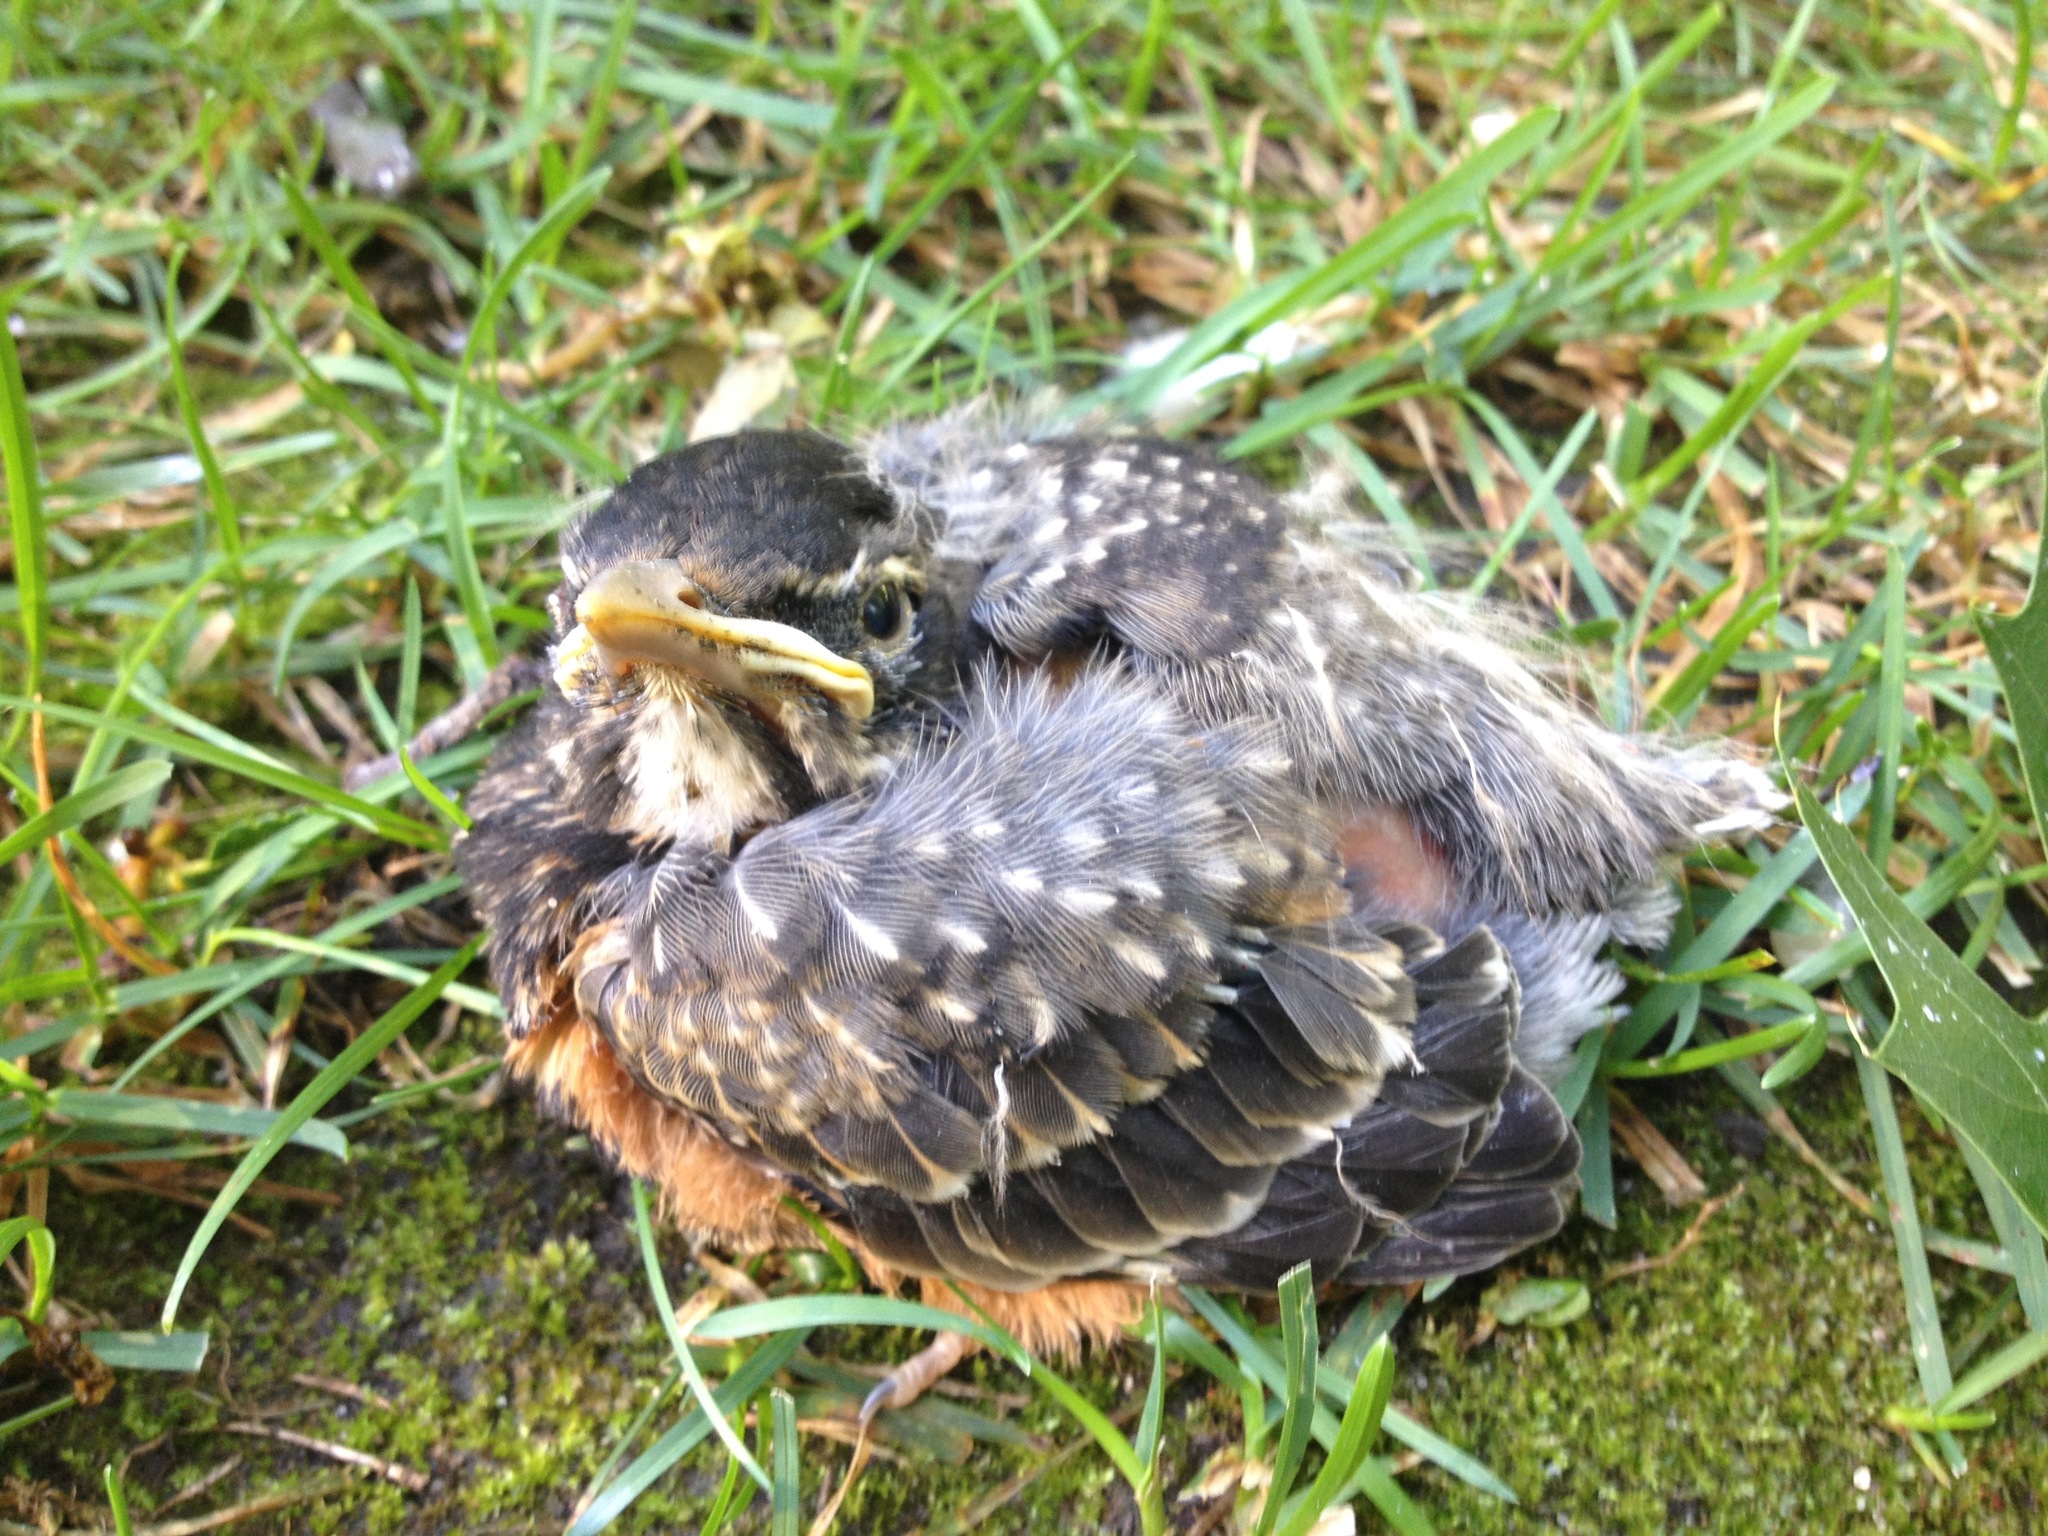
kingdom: Animalia
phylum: Chordata
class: Aves
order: Passeriformes
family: Turdidae
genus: Turdus
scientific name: Turdus migratorius
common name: American robin
